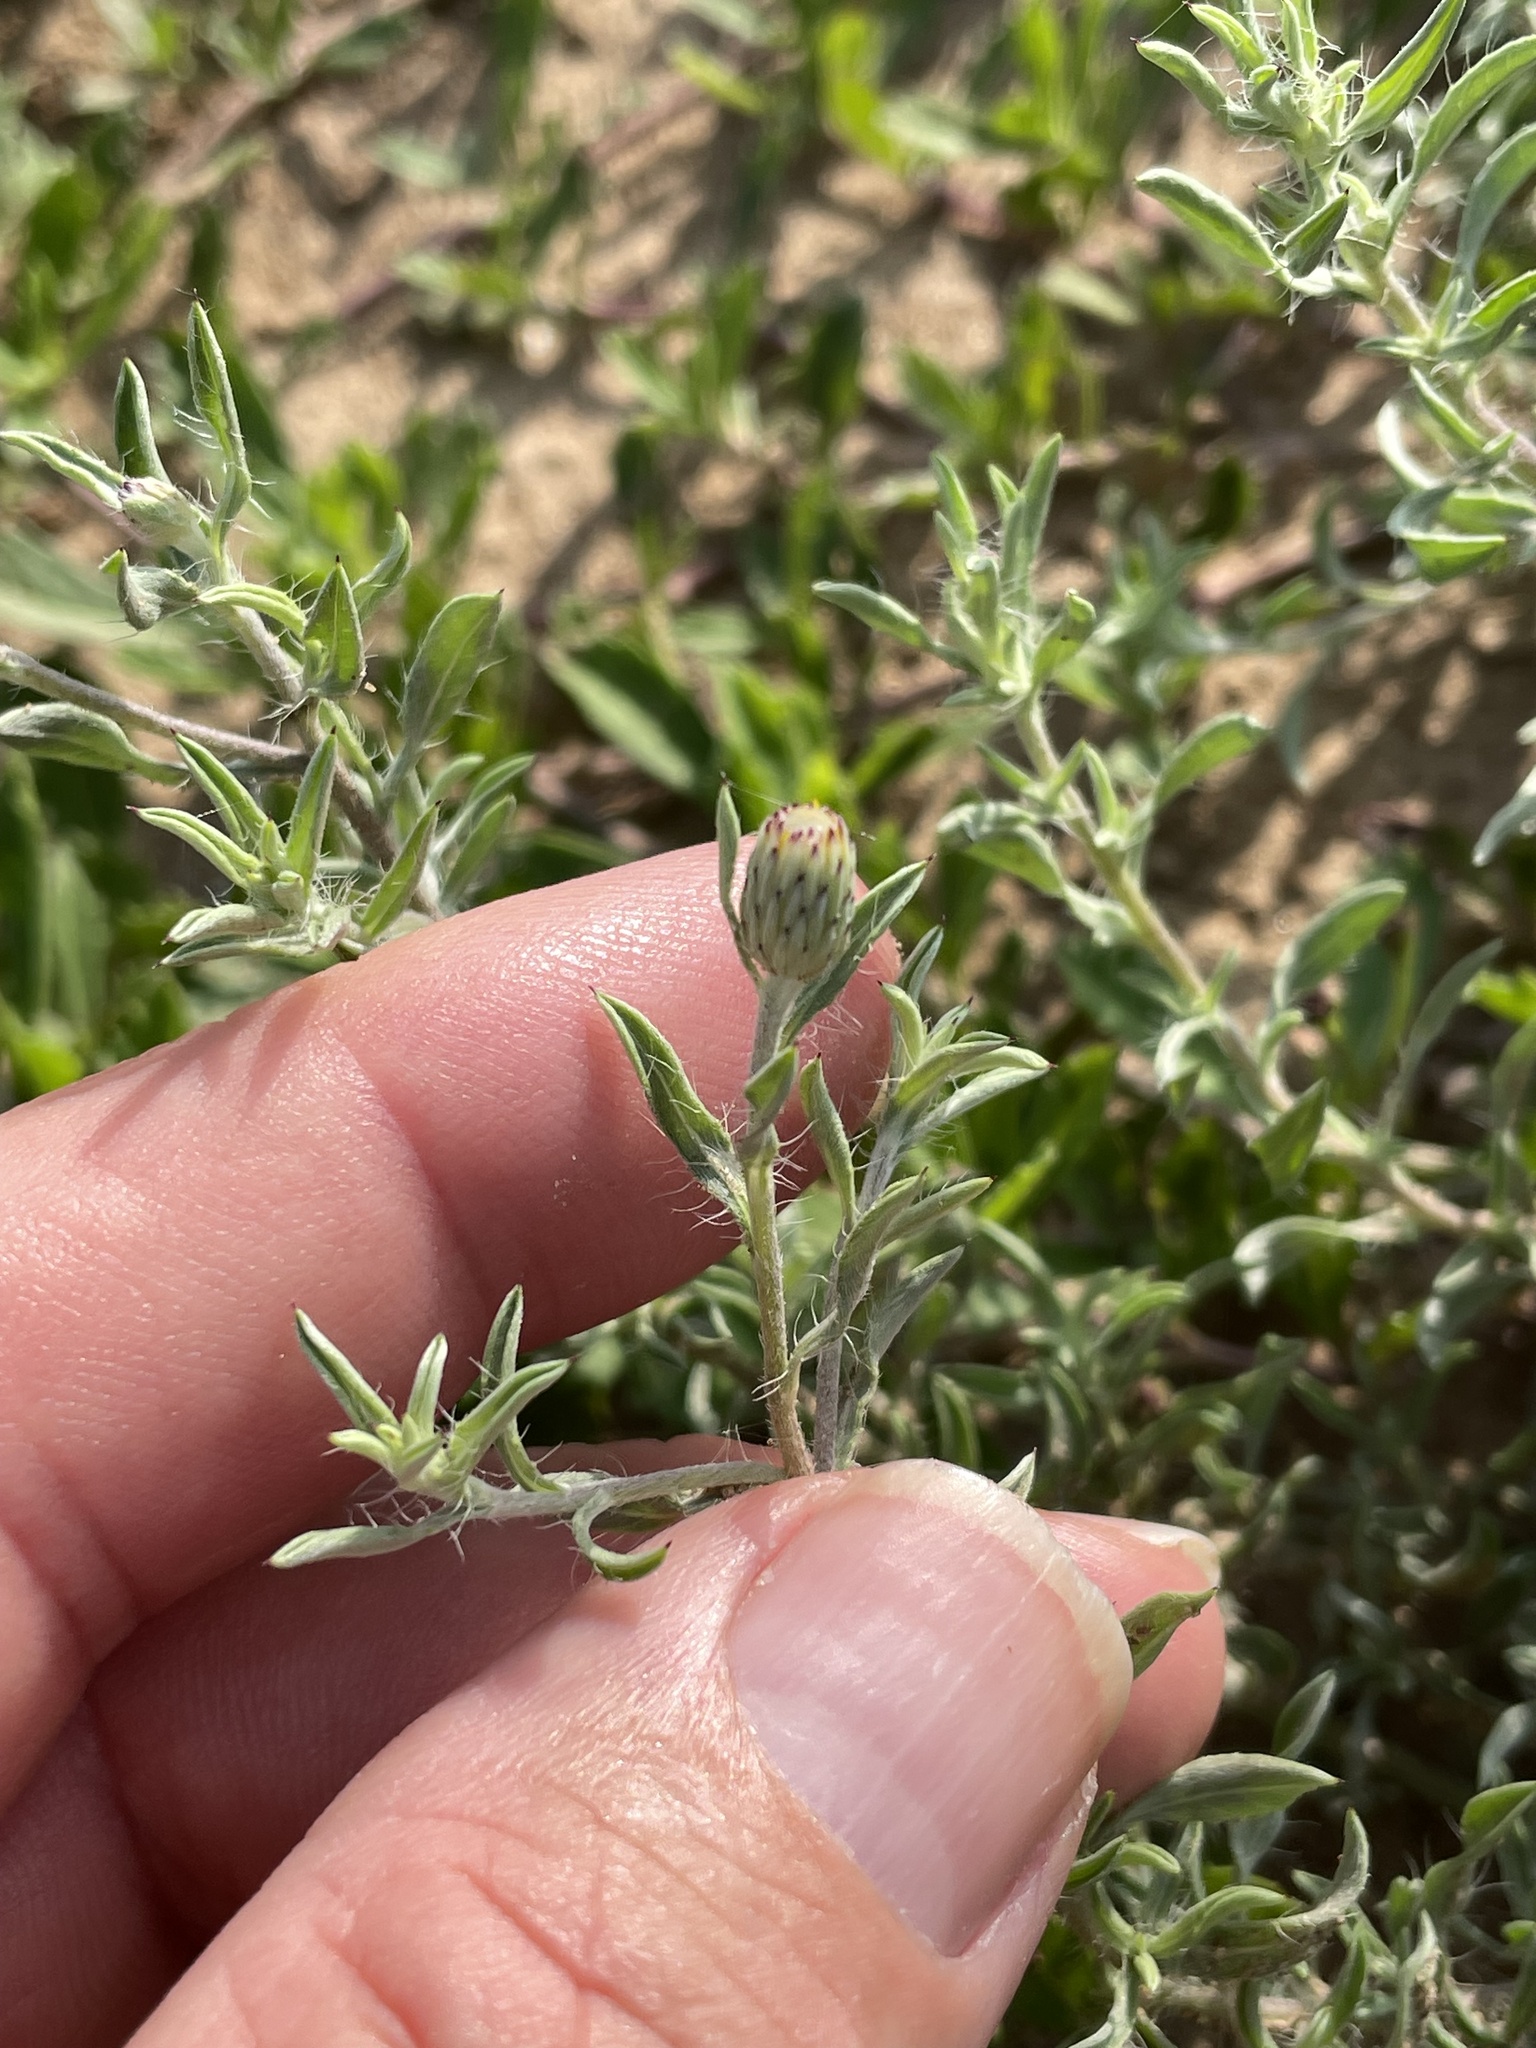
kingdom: Plantae
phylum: Tracheophyta
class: Magnoliopsida
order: Asterales
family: Asteraceae
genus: Heterotheca
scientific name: Heterotheca canescens
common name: Hoary golden-aster
